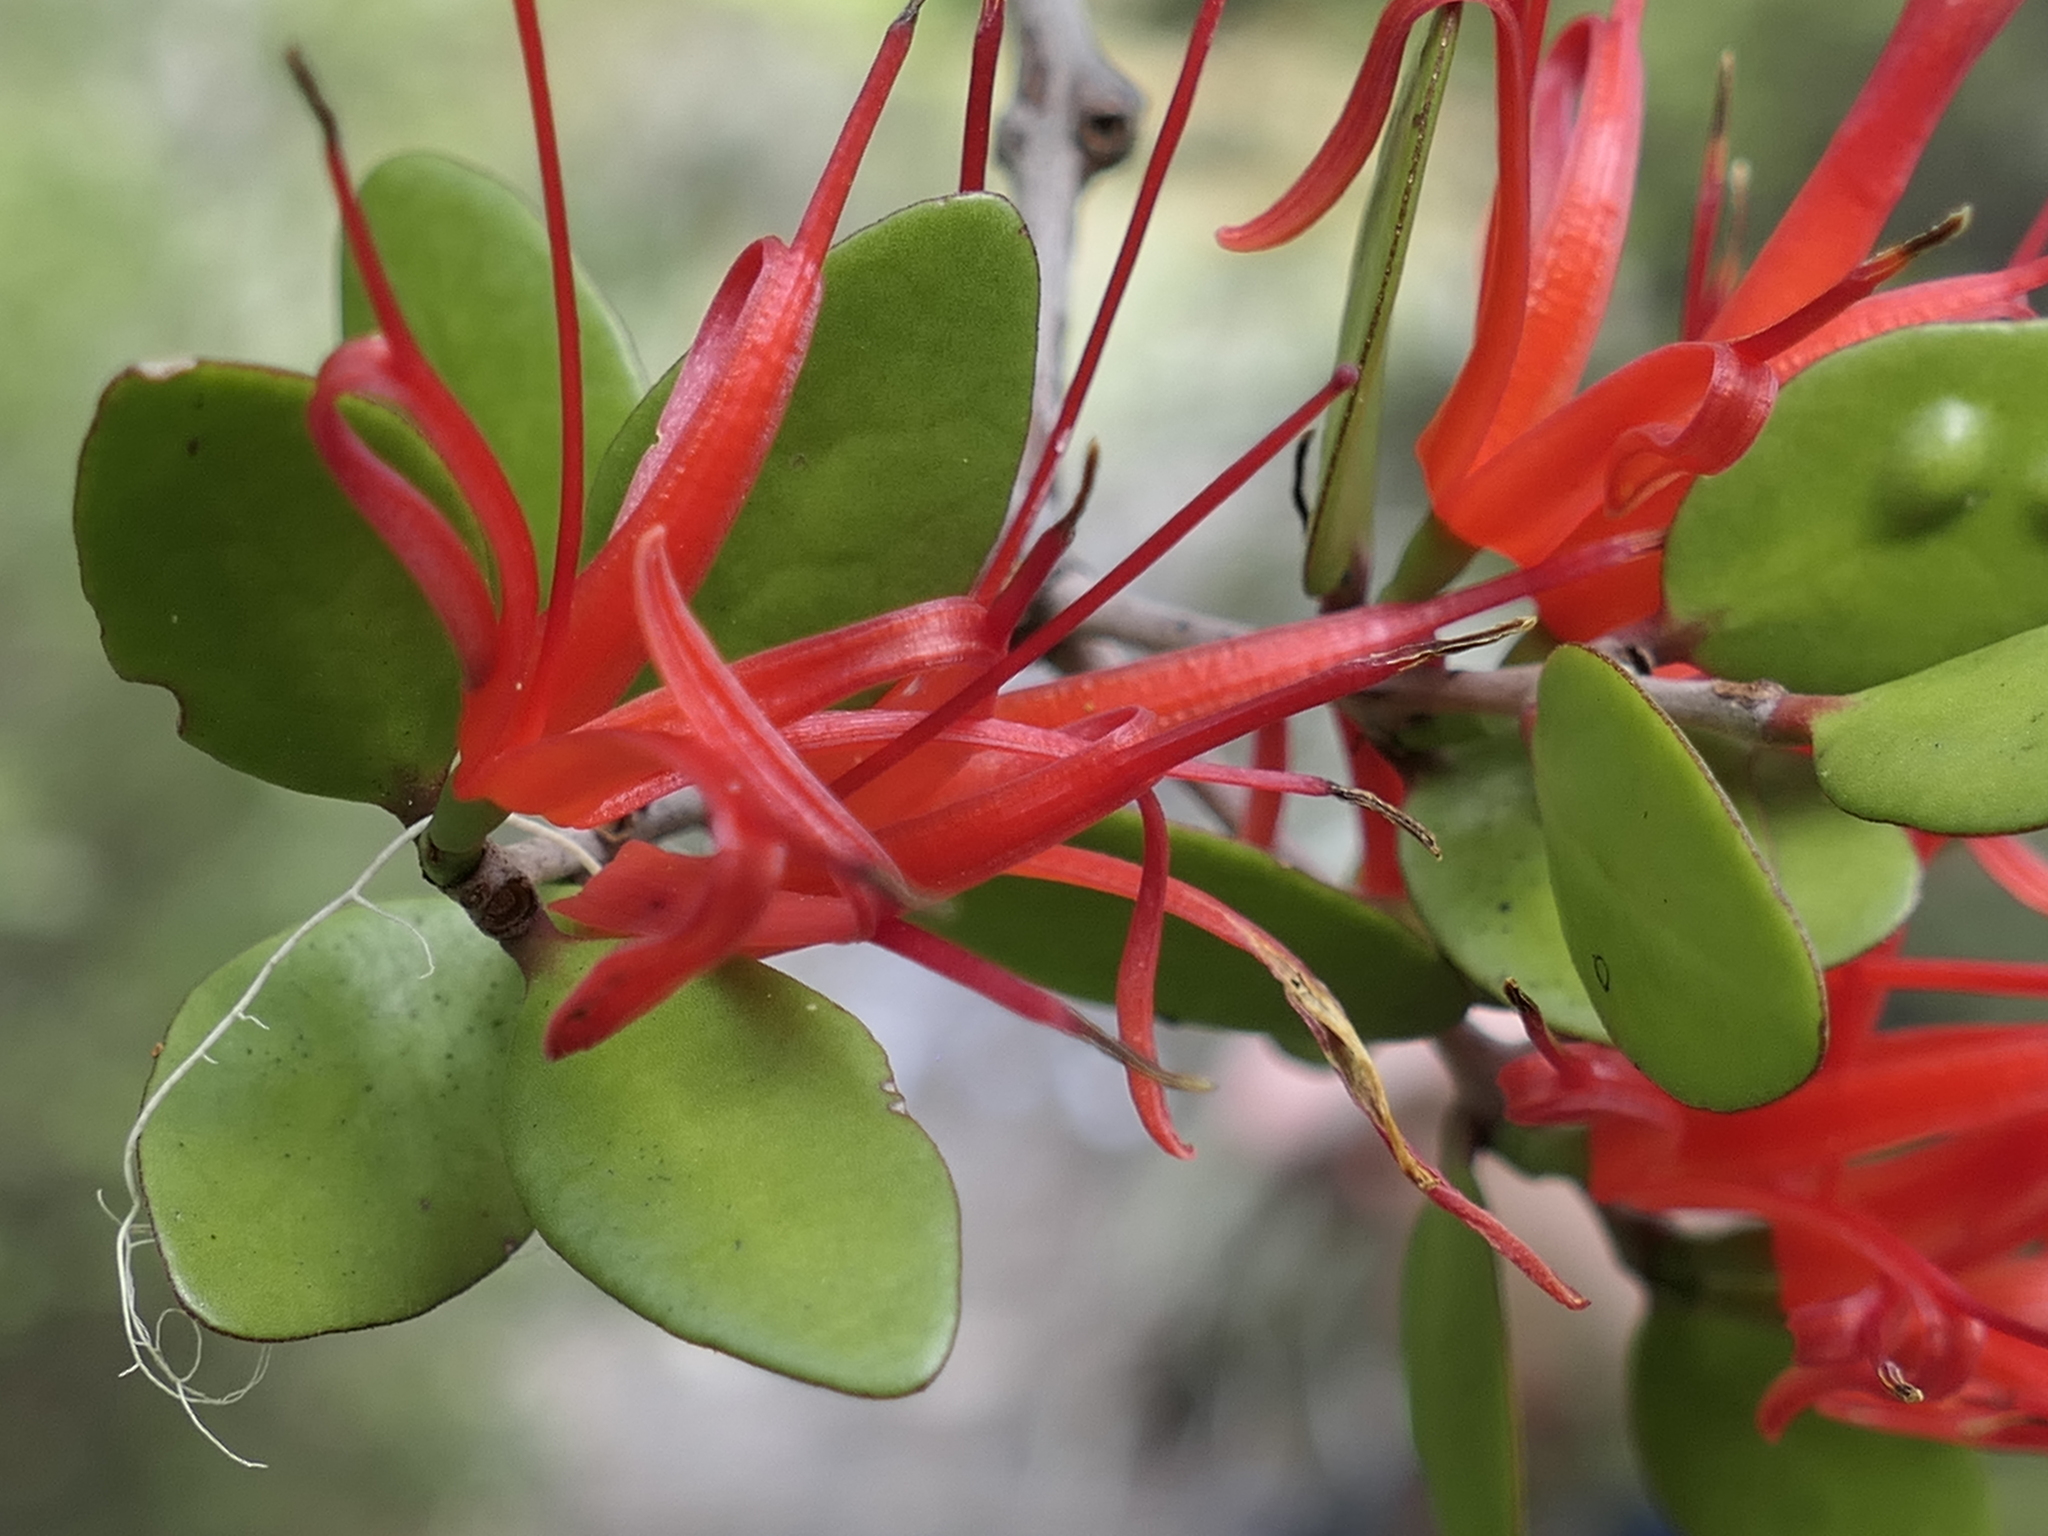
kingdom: Plantae
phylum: Tracheophyta
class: Magnoliopsida
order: Santalales
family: Loranthaceae
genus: Peraxilla
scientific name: Peraxilla tetrapetala
